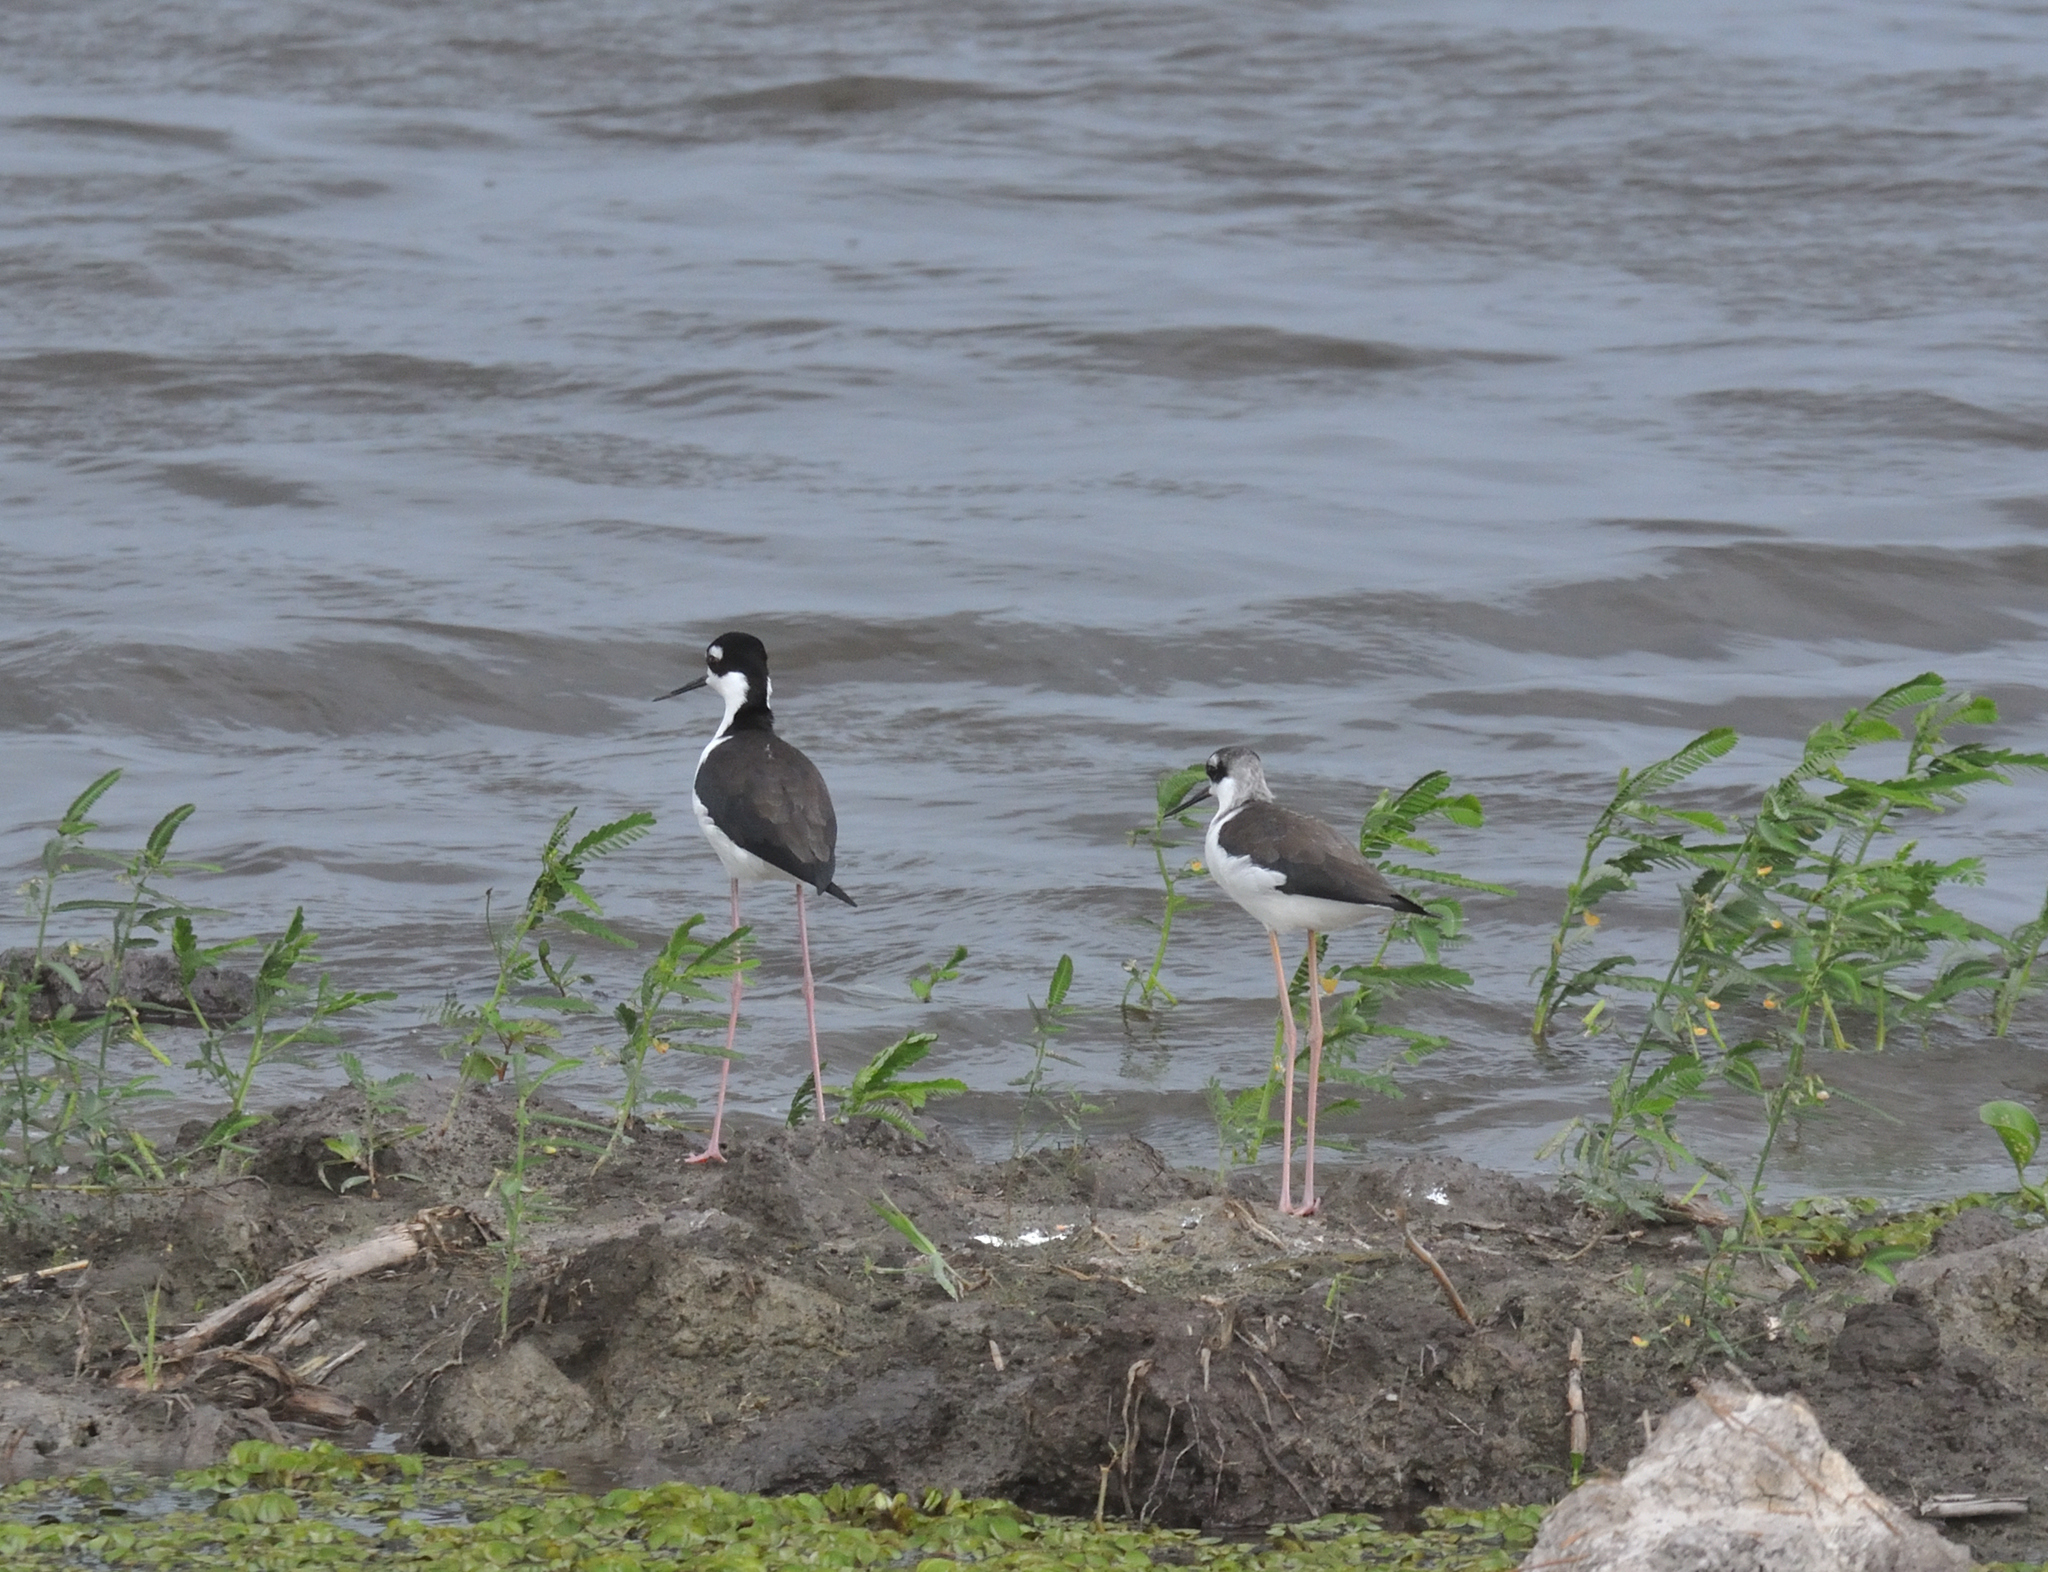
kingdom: Animalia
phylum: Chordata
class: Aves
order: Charadriiformes
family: Recurvirostridae
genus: Himantopus
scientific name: Himantopus mexicanus
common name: Black-necked stilt
